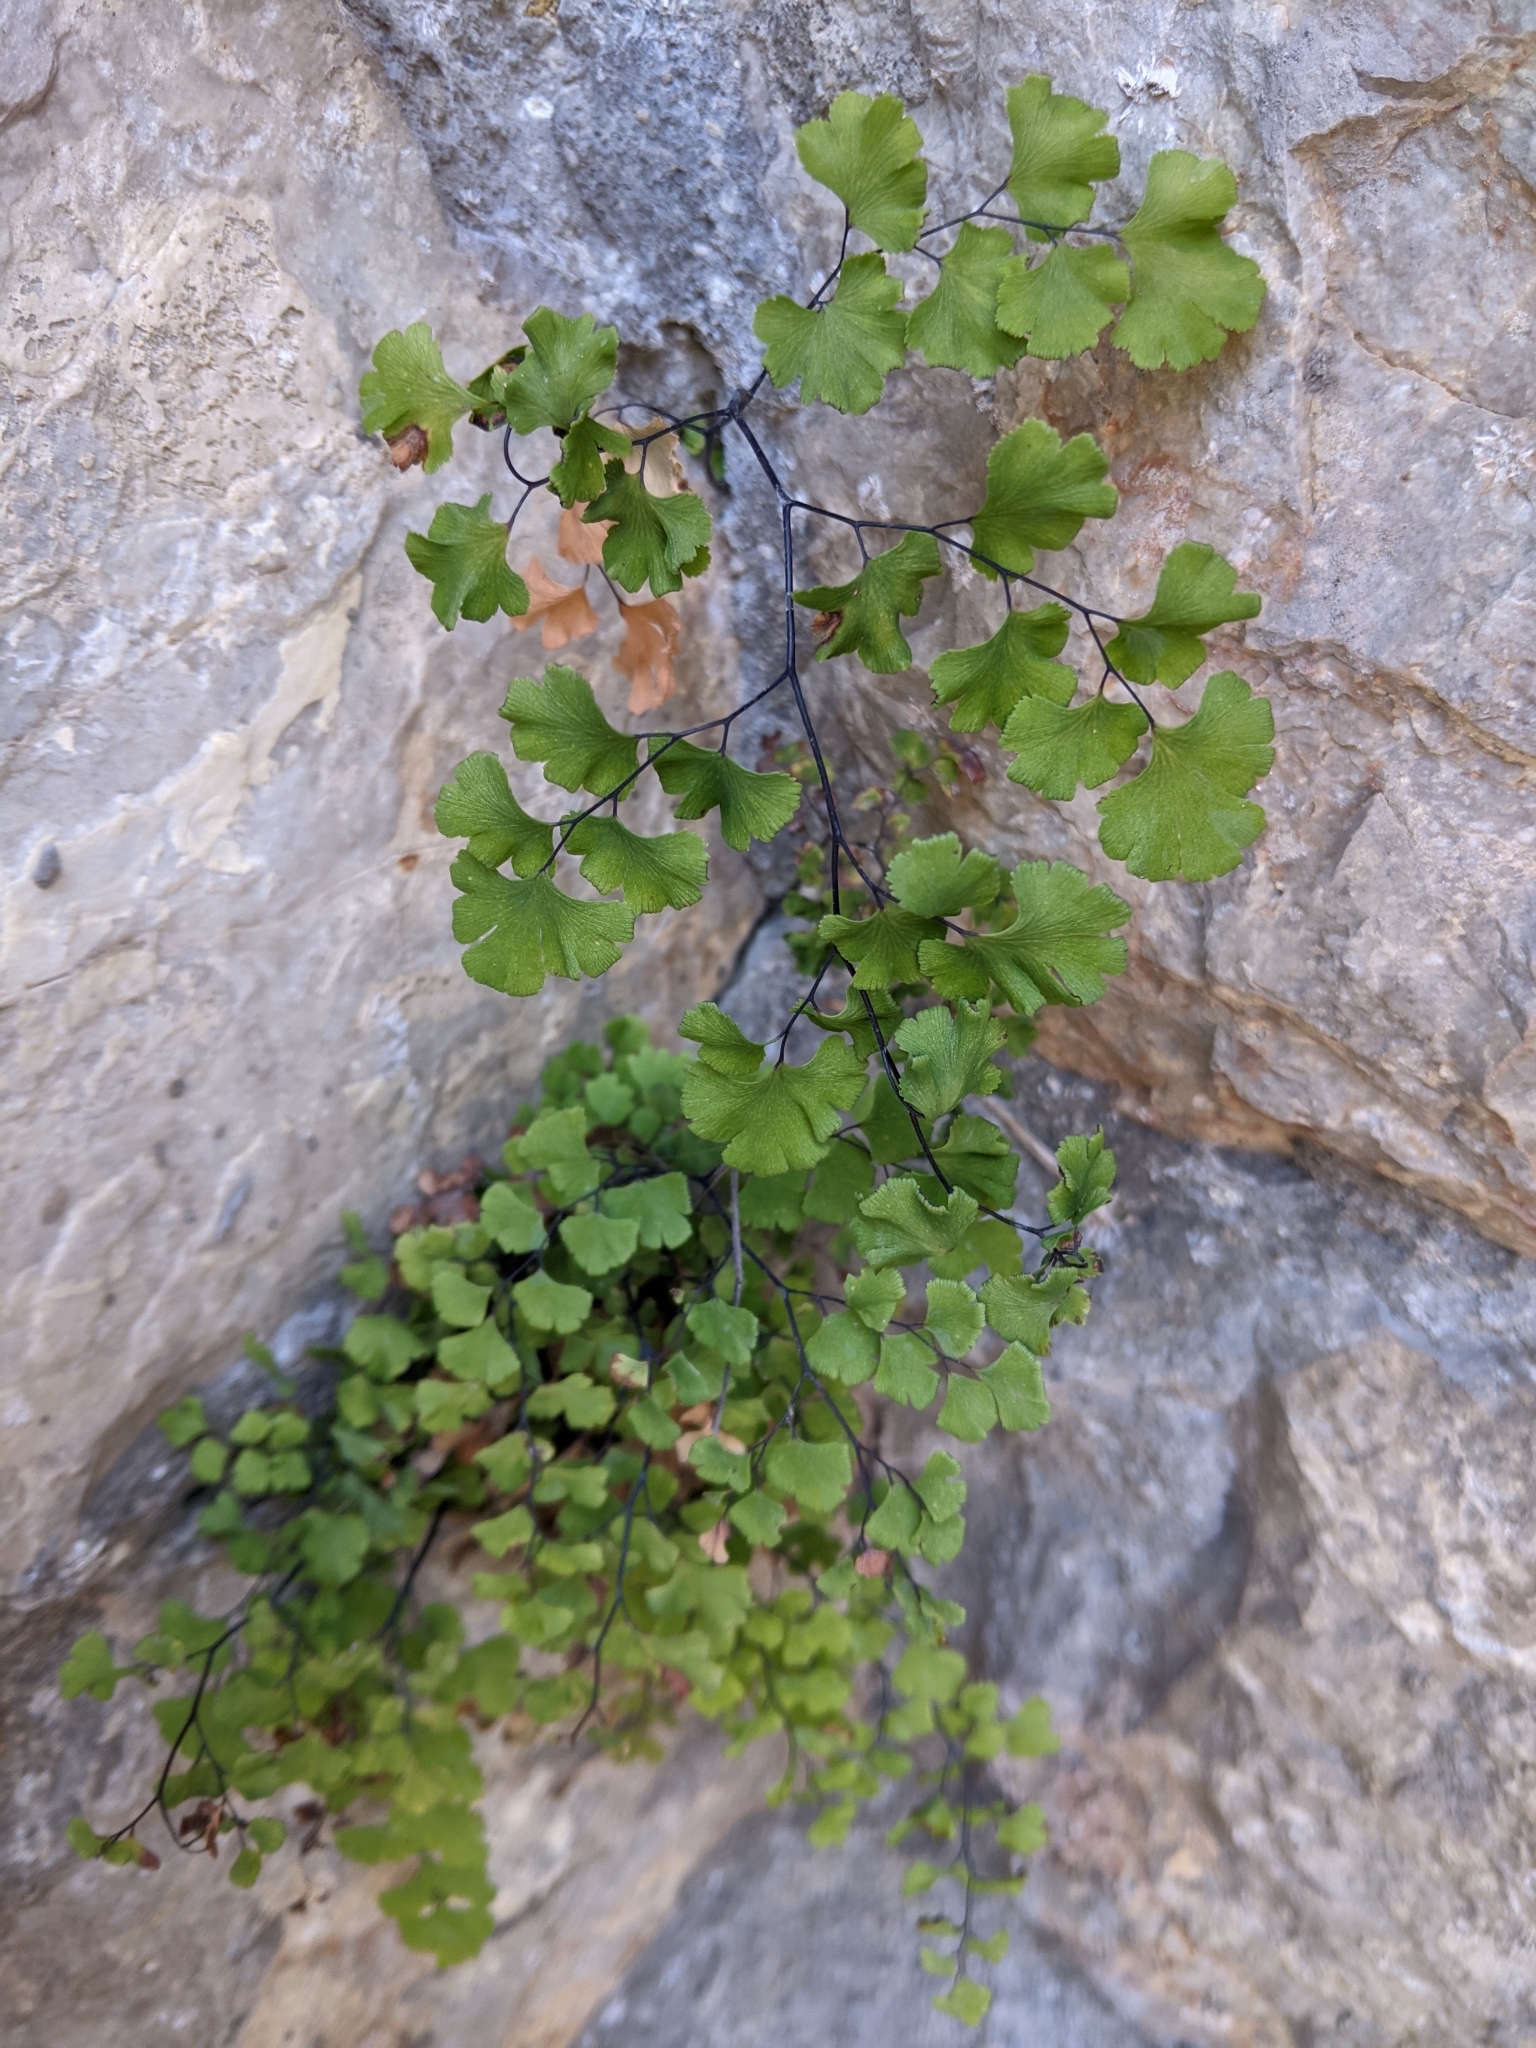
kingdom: Plantae
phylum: Tracheophyta
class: Polypodiopsida
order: Polypodiales
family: Pteridaceae
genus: Adiantum
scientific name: Adiantum capillus-veneris
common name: Maidenhair fern
